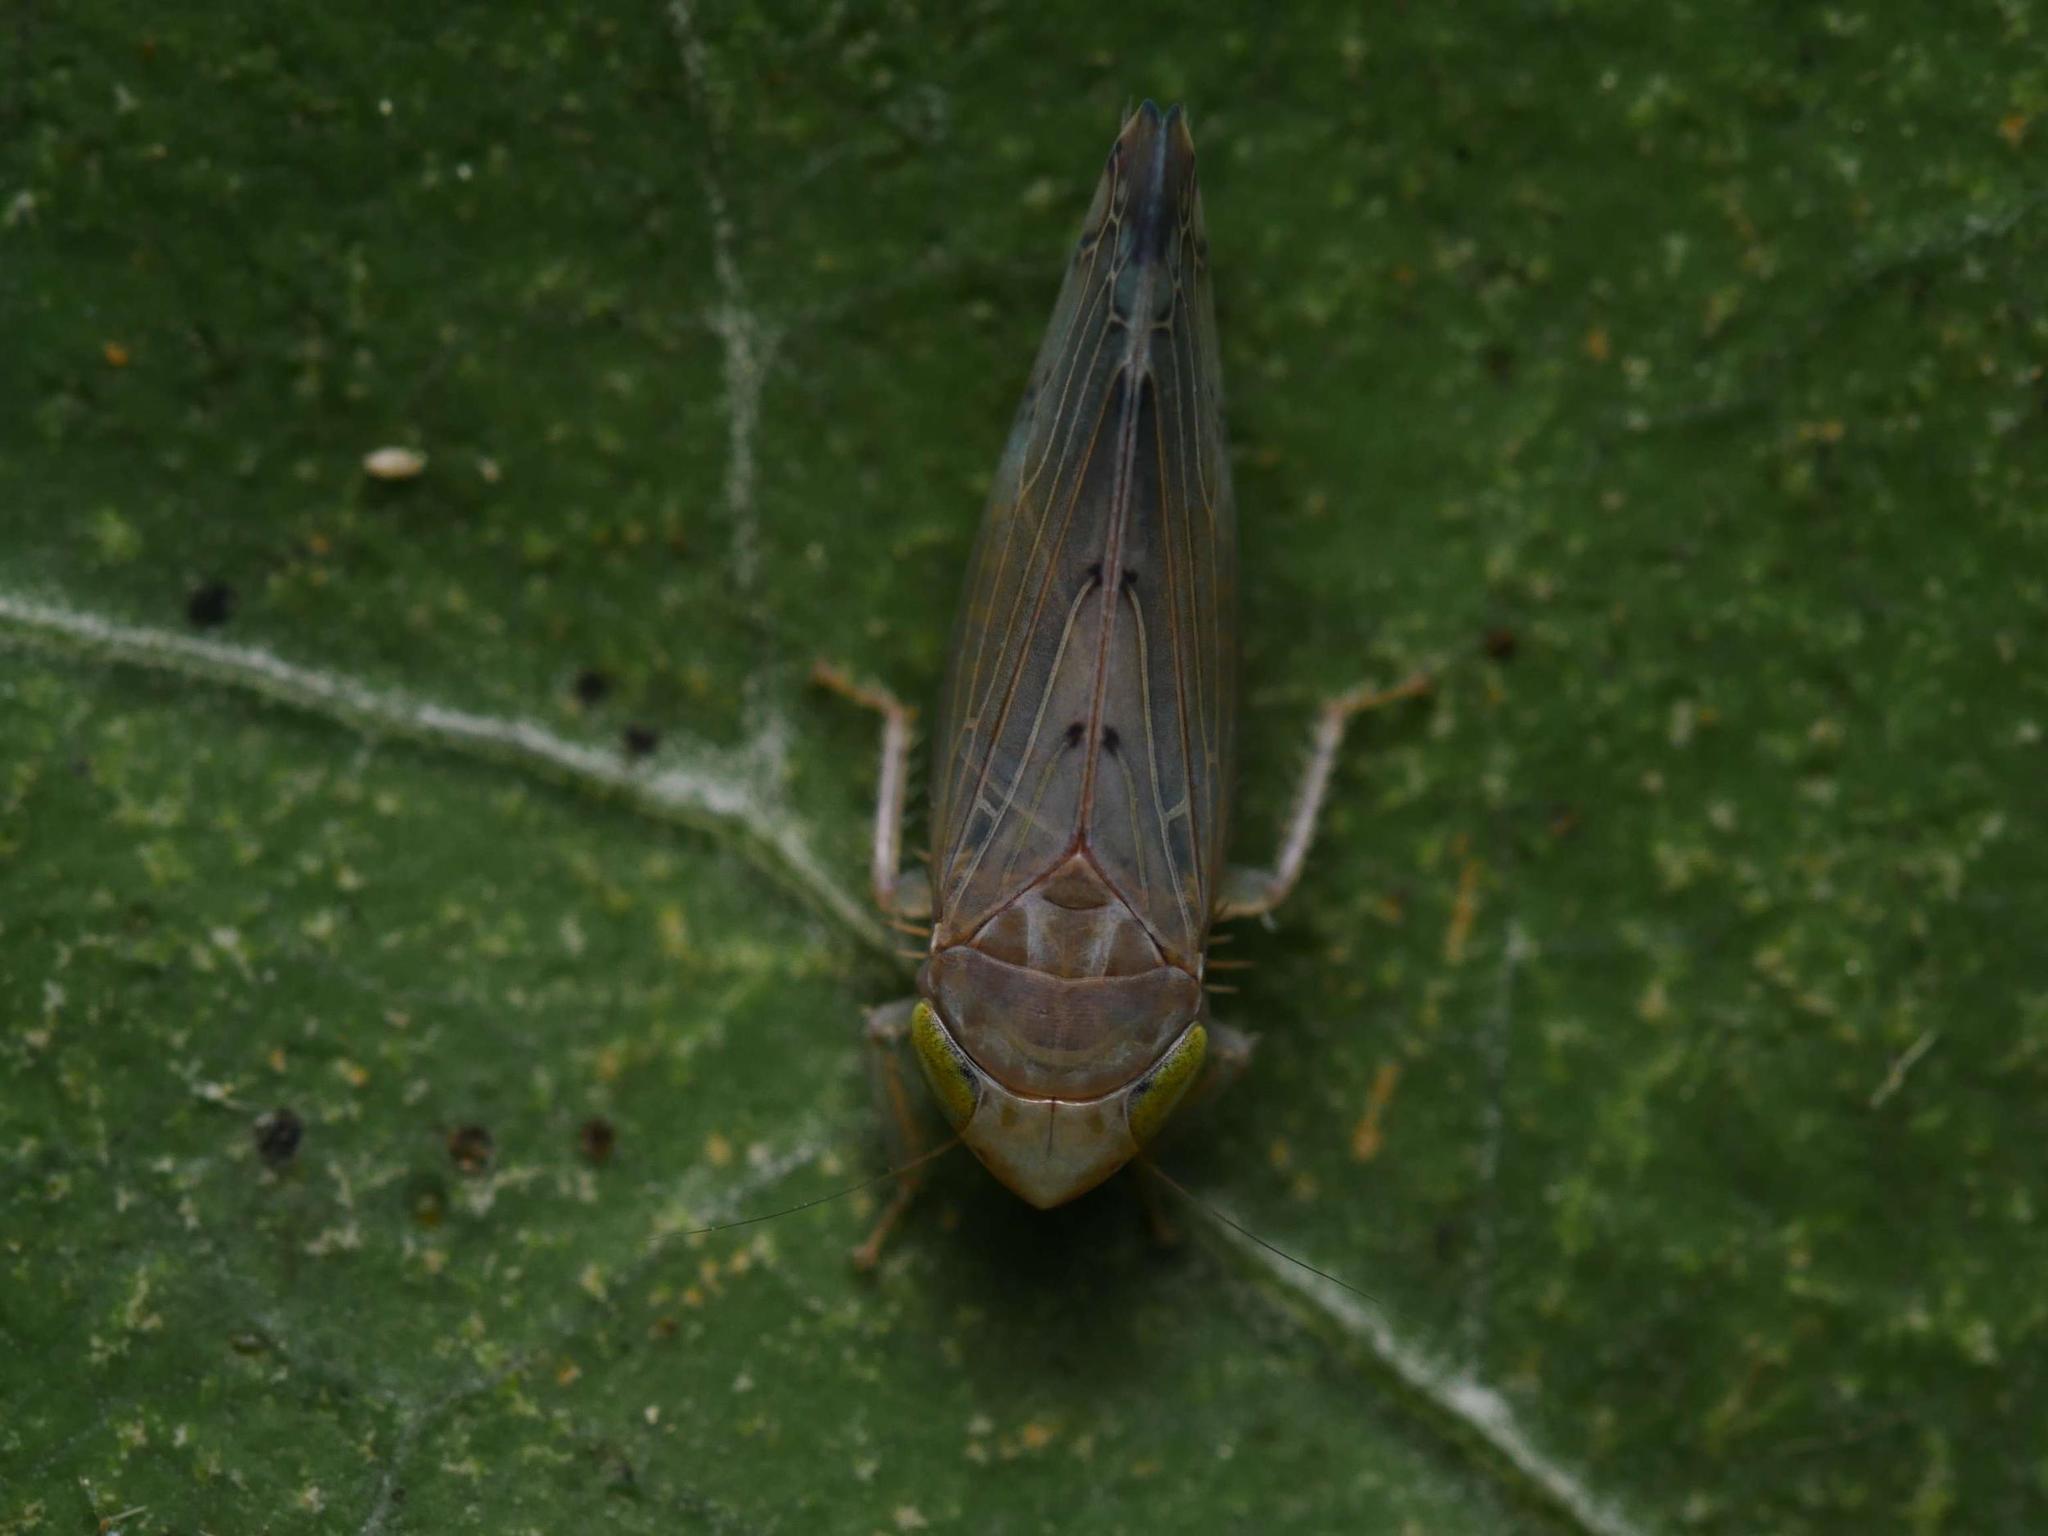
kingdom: Animalia
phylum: Arthropoda
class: Insecta
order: Hemiptera
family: Cicadellidae
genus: Synophropsis
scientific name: Synophropsis lauri
